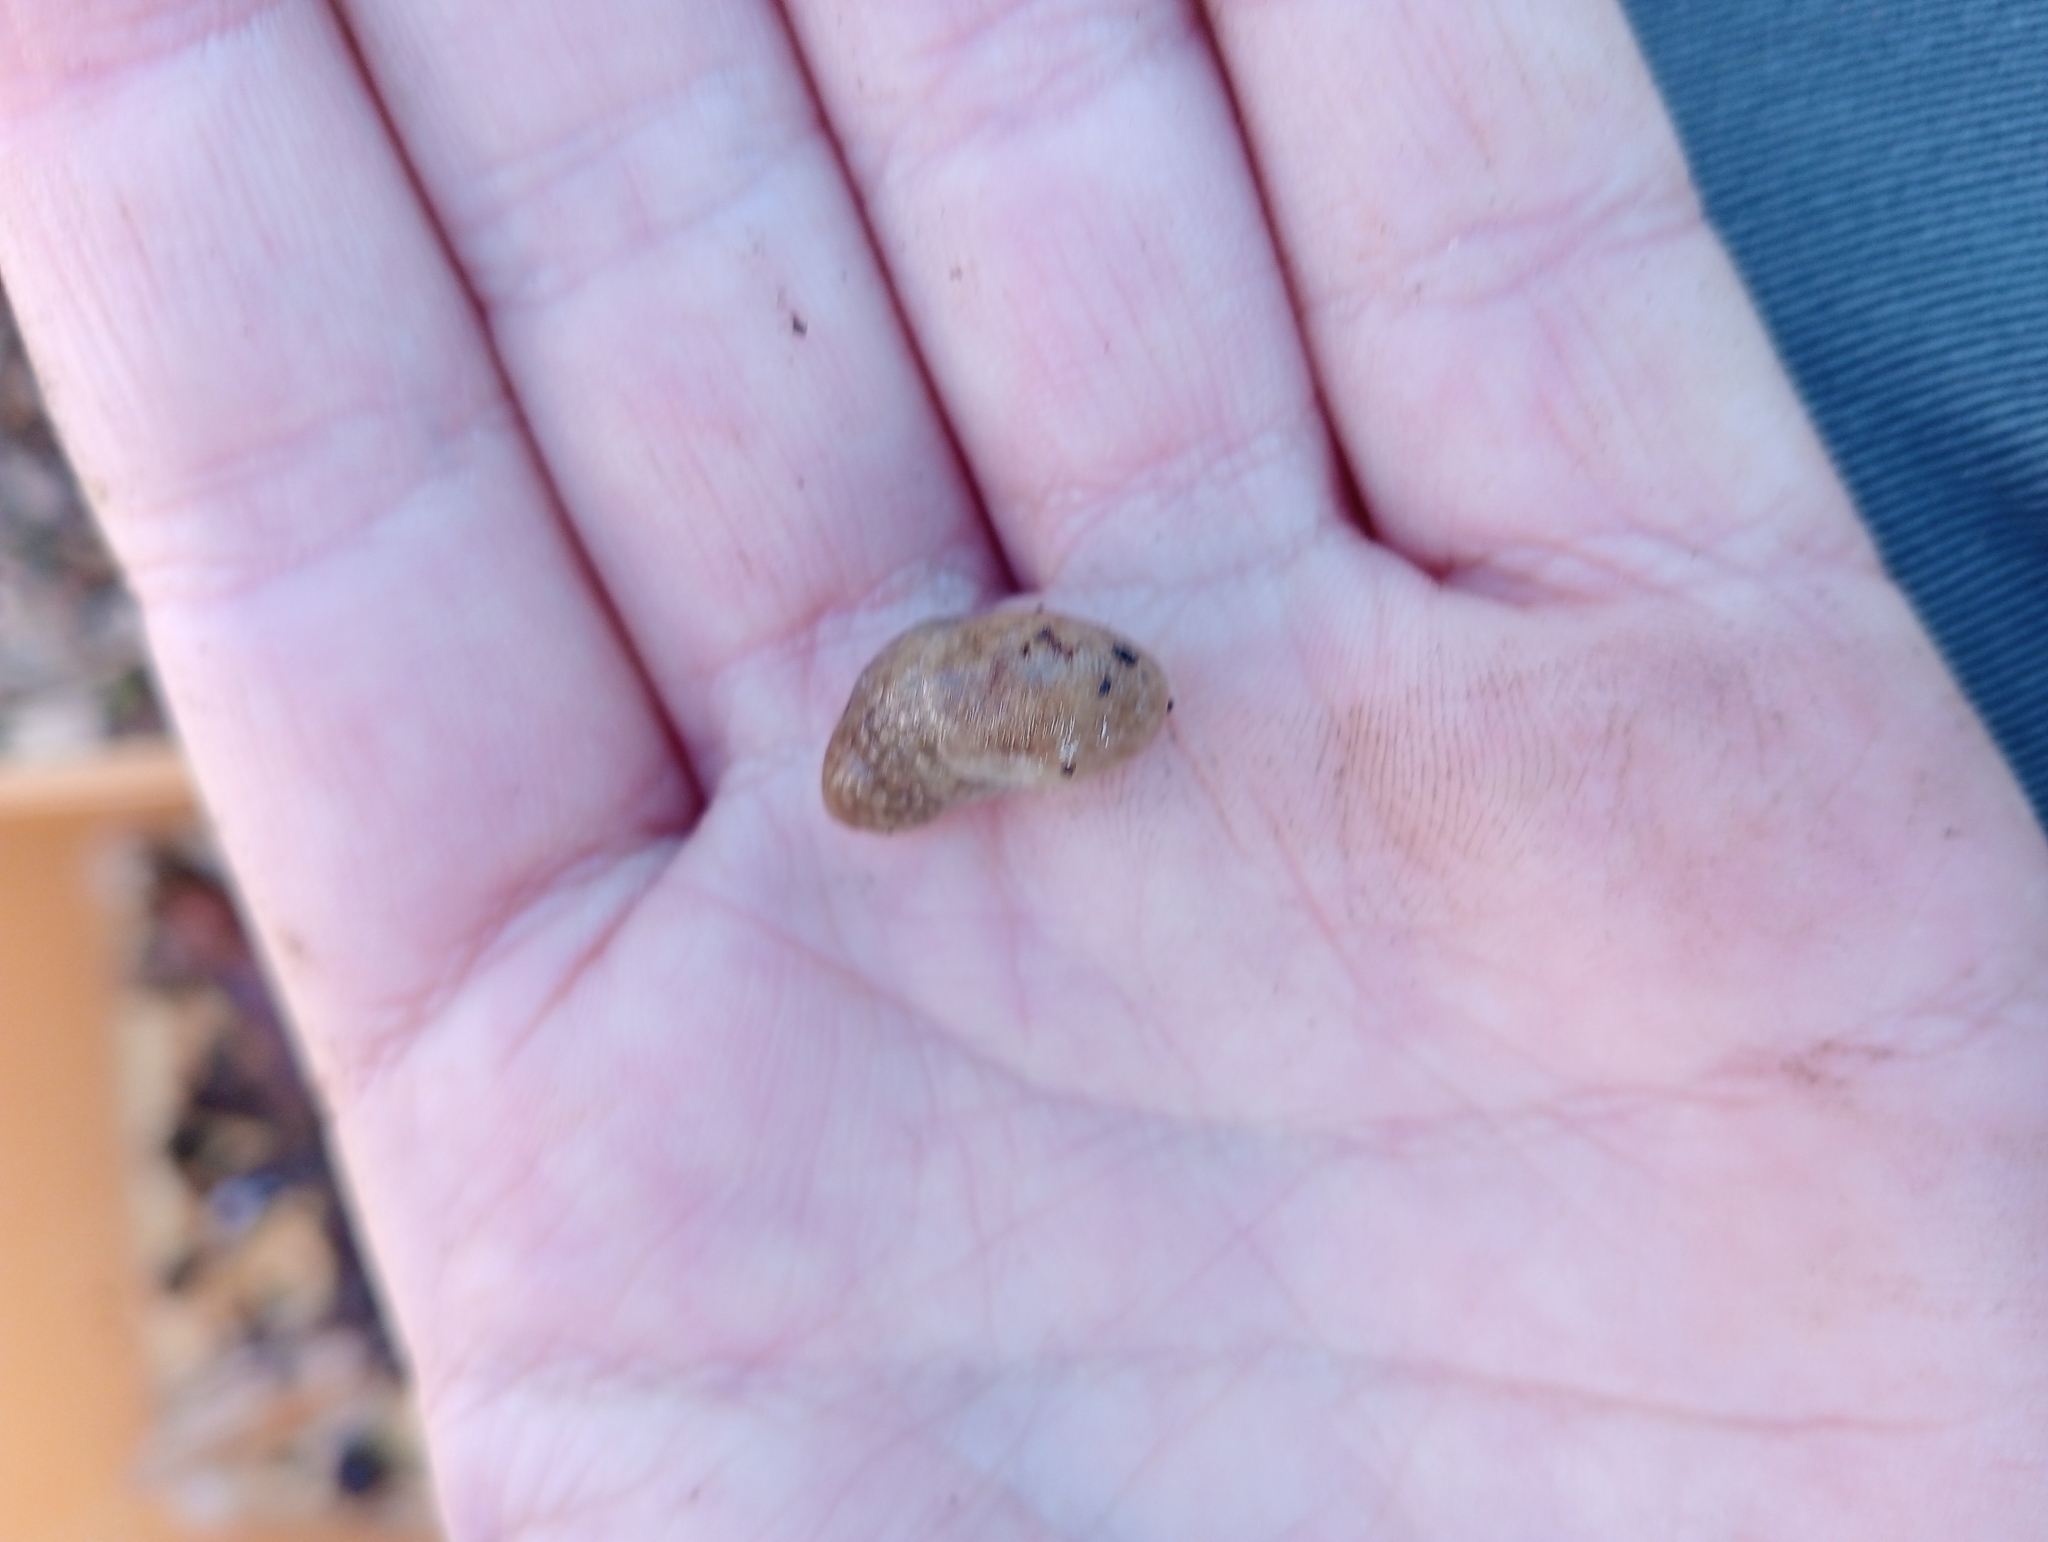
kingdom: Animalia
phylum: Mollusca
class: Gastropoda
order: Stylommatophora
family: Agriolimacidae
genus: Deroceras
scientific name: Deroceras reticulatum
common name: Gray field slug
